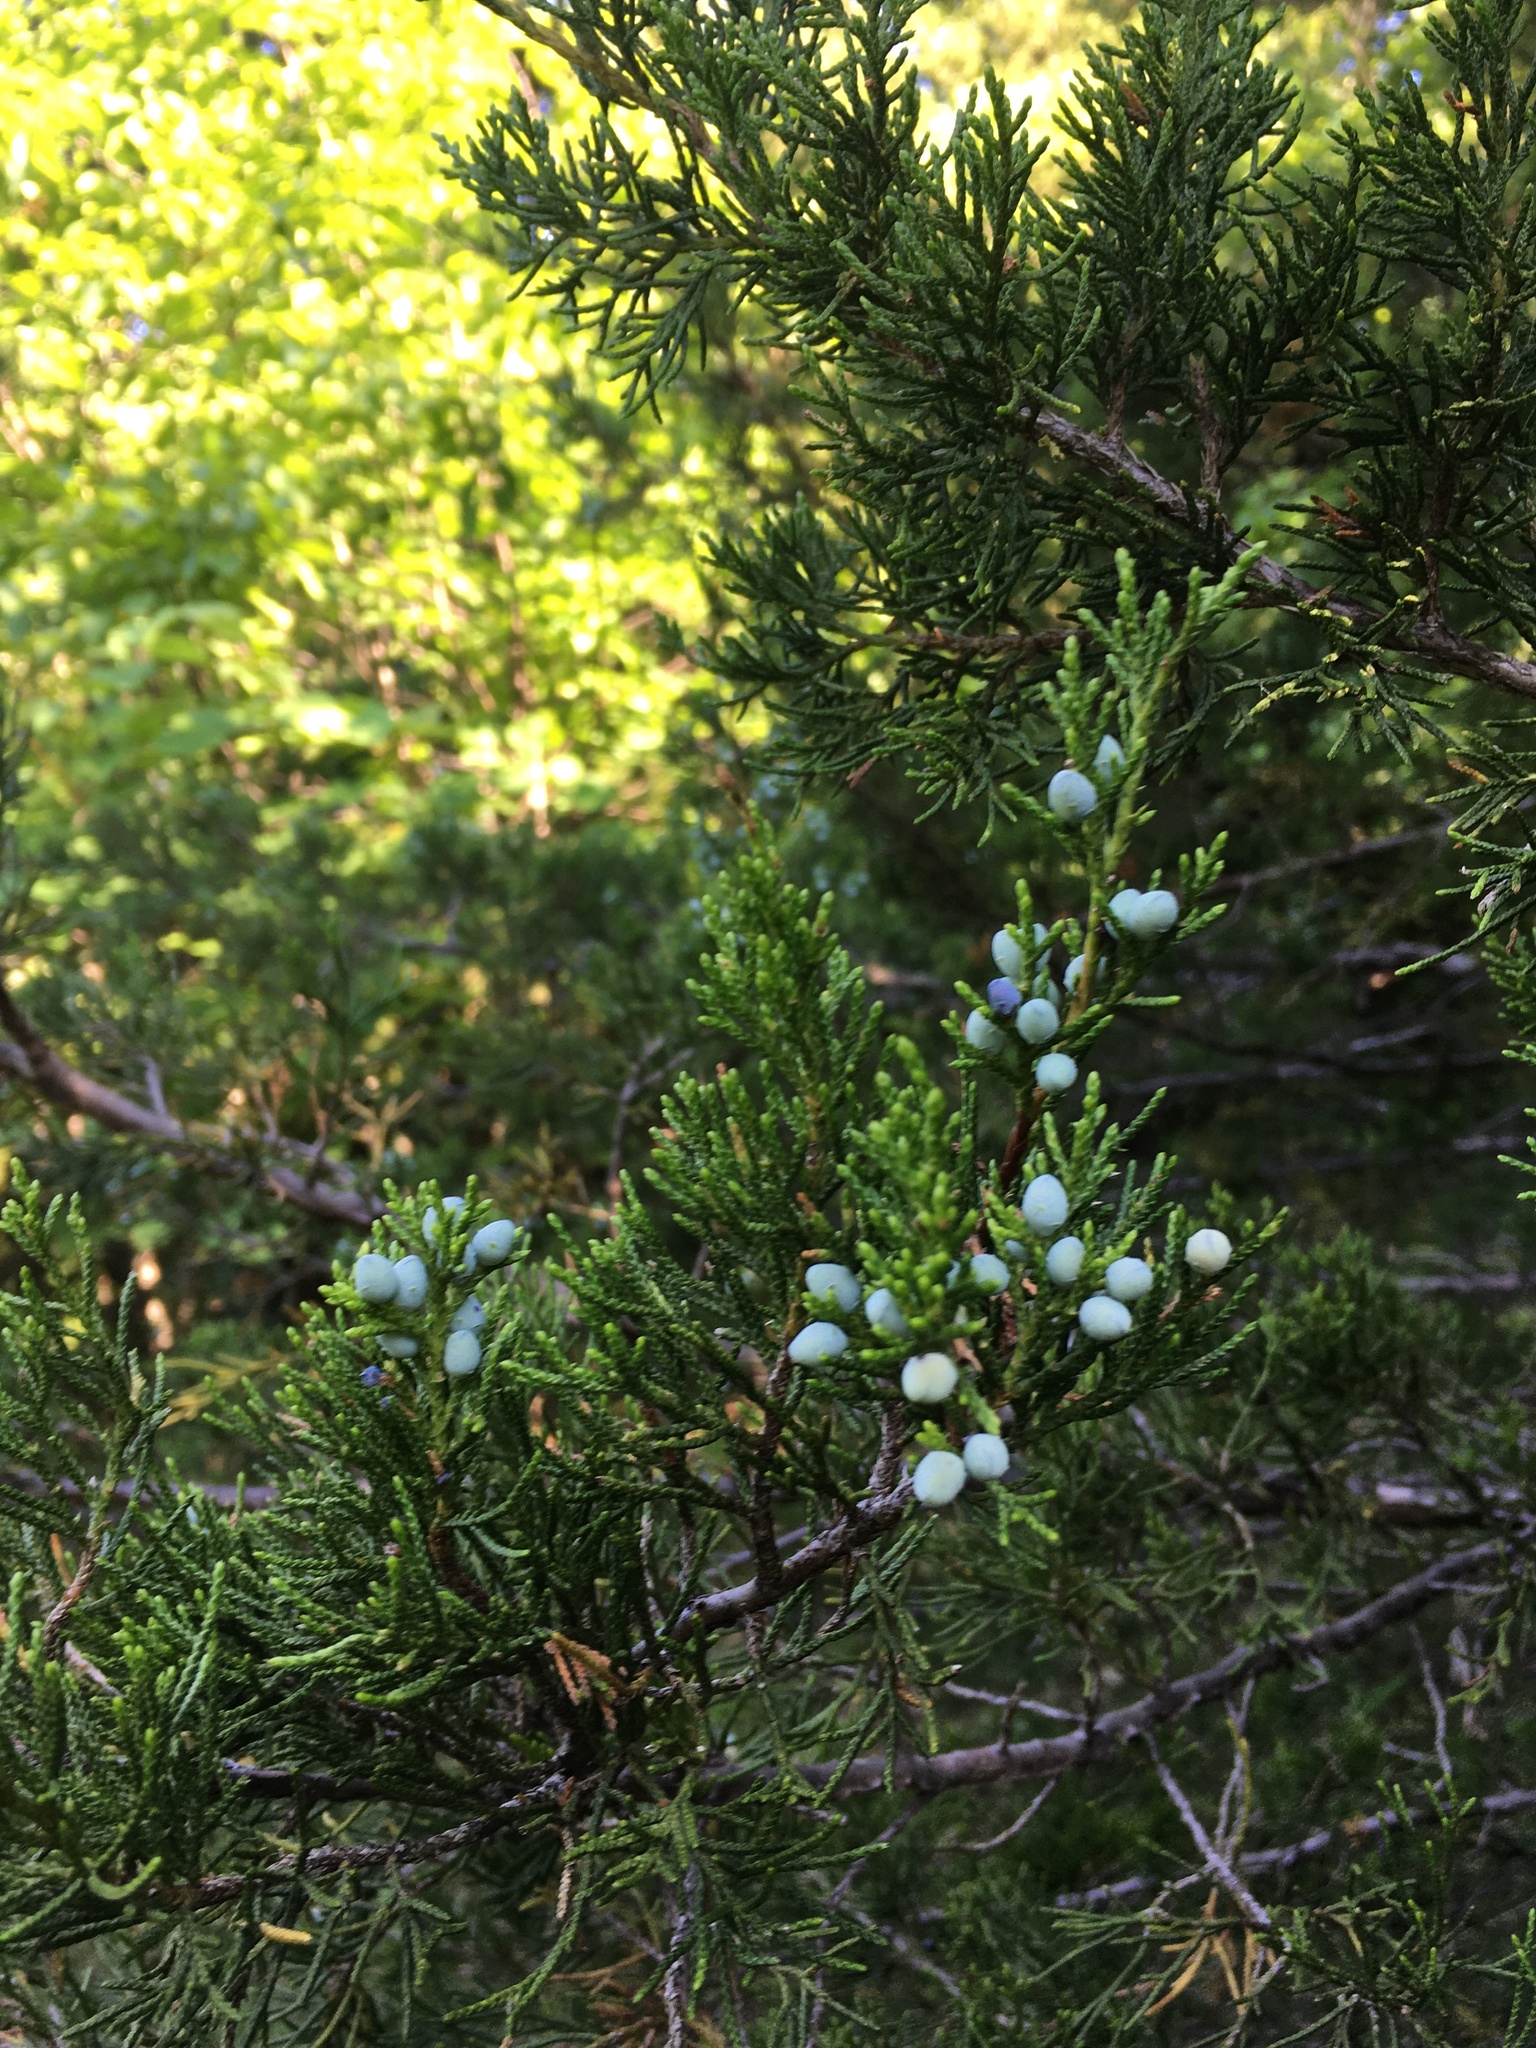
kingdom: Plantae
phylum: Tracheophyta
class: Pinopsida
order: Pinales
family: Cupressaceae
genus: Juniperus
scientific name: Juniperus virginiana
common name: Red juniper
